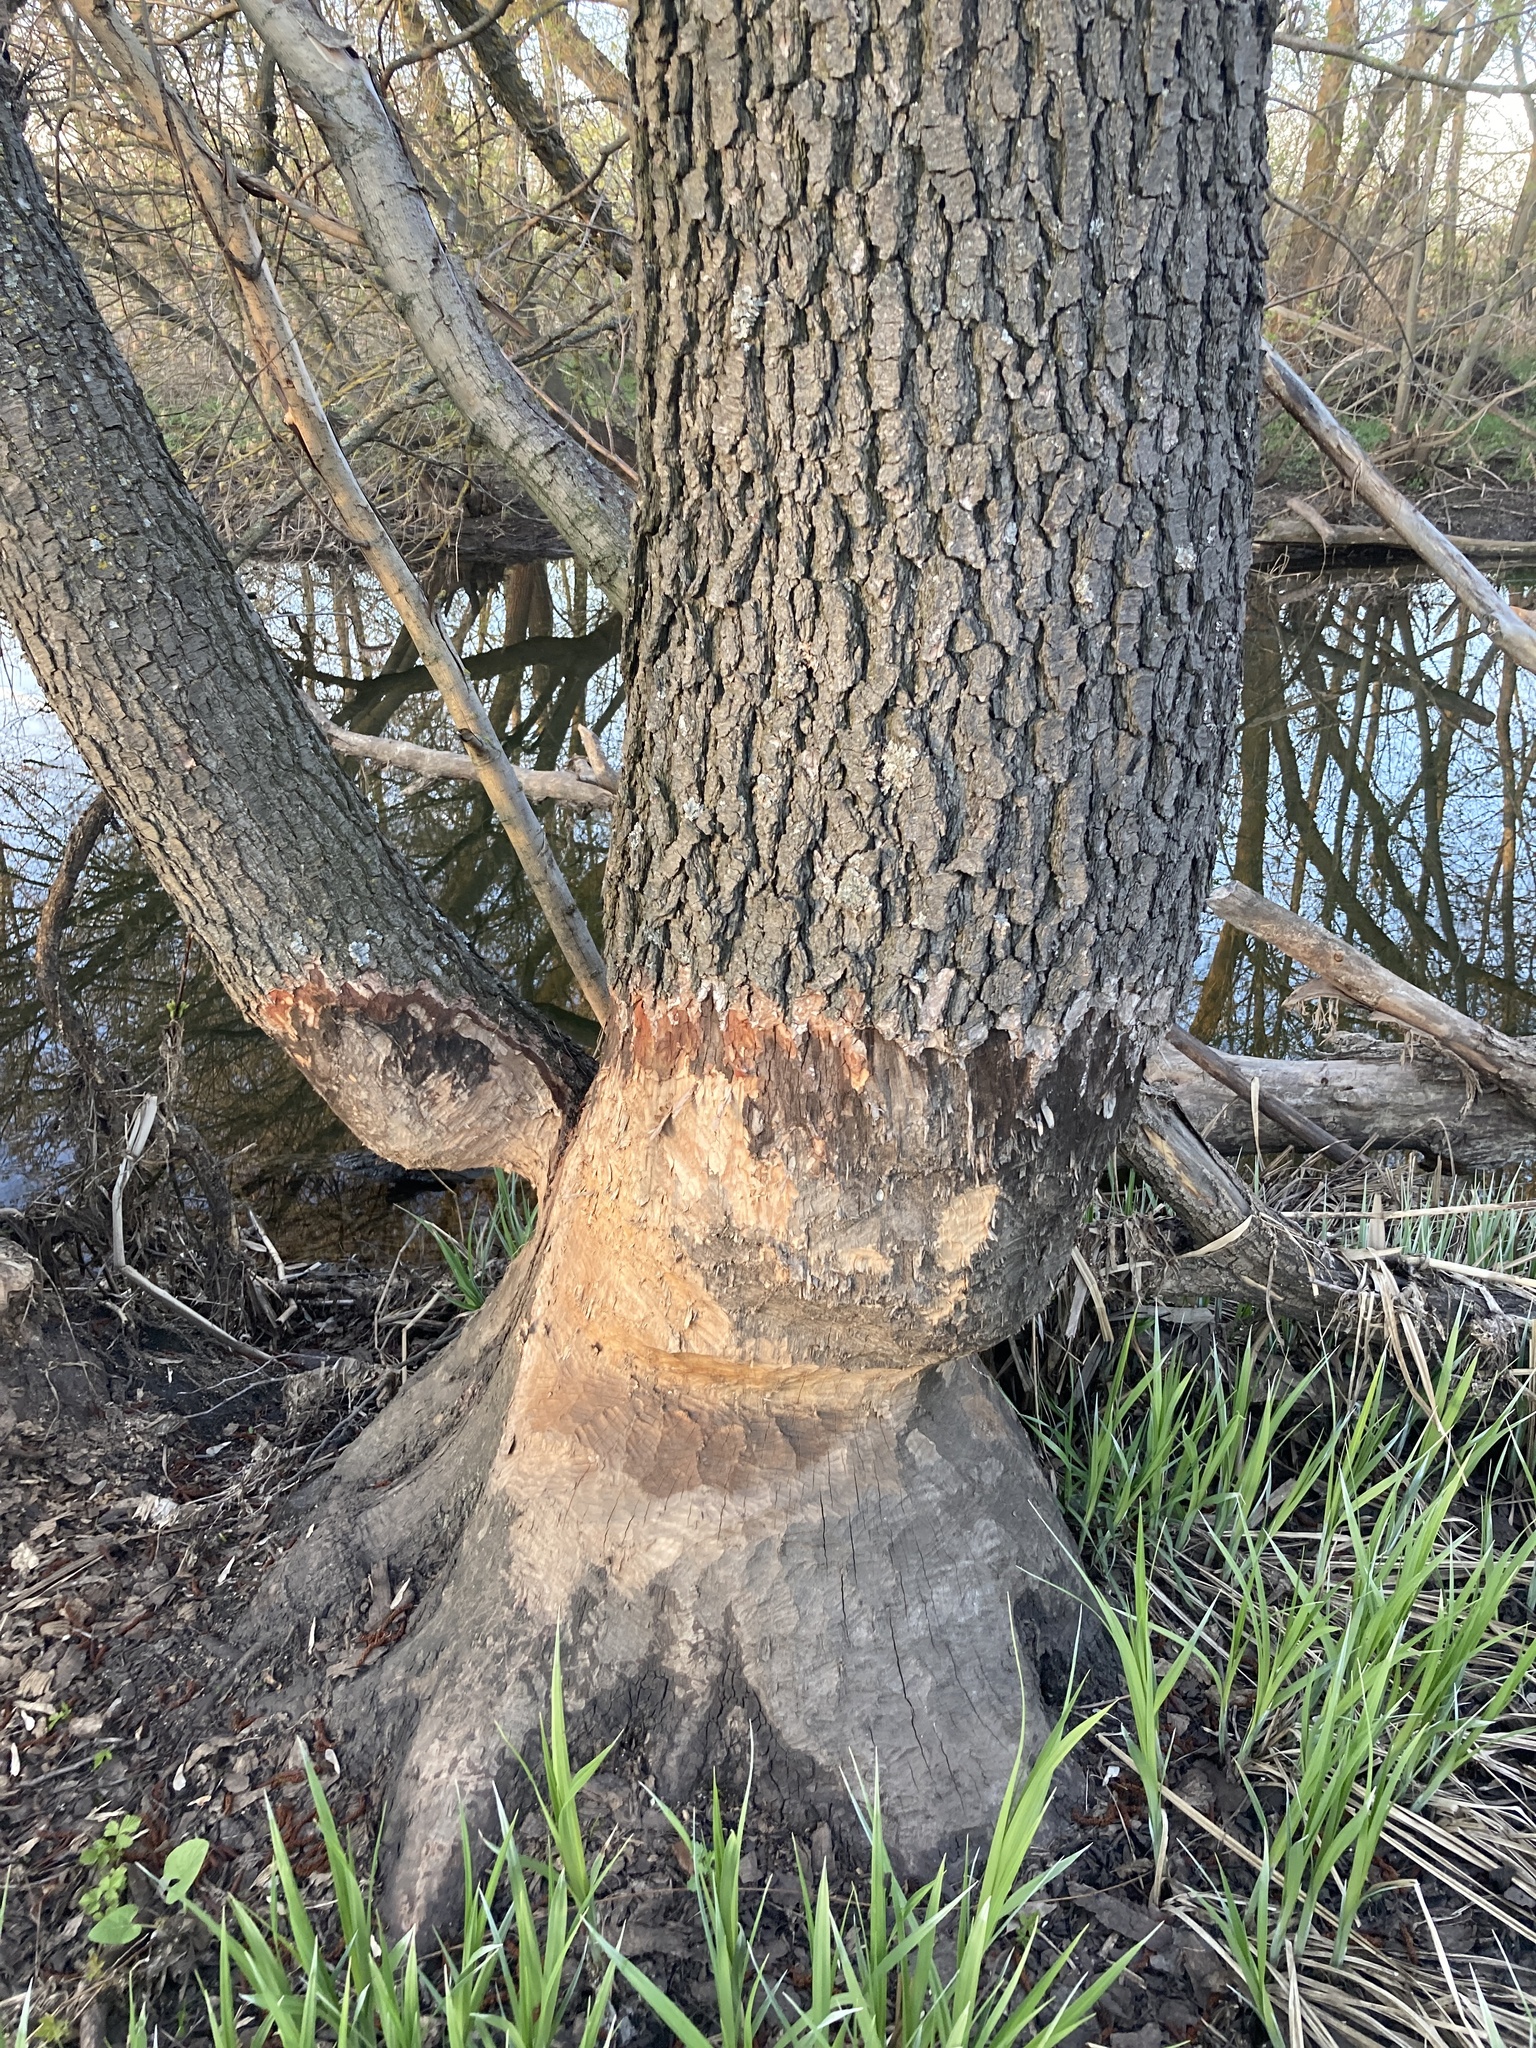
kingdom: Plantae
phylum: Tracheophyta
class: Magnoliopsida
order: Fagales
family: Betulaceae
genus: Alnus
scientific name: Alnus glutinosa
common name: Black alder
